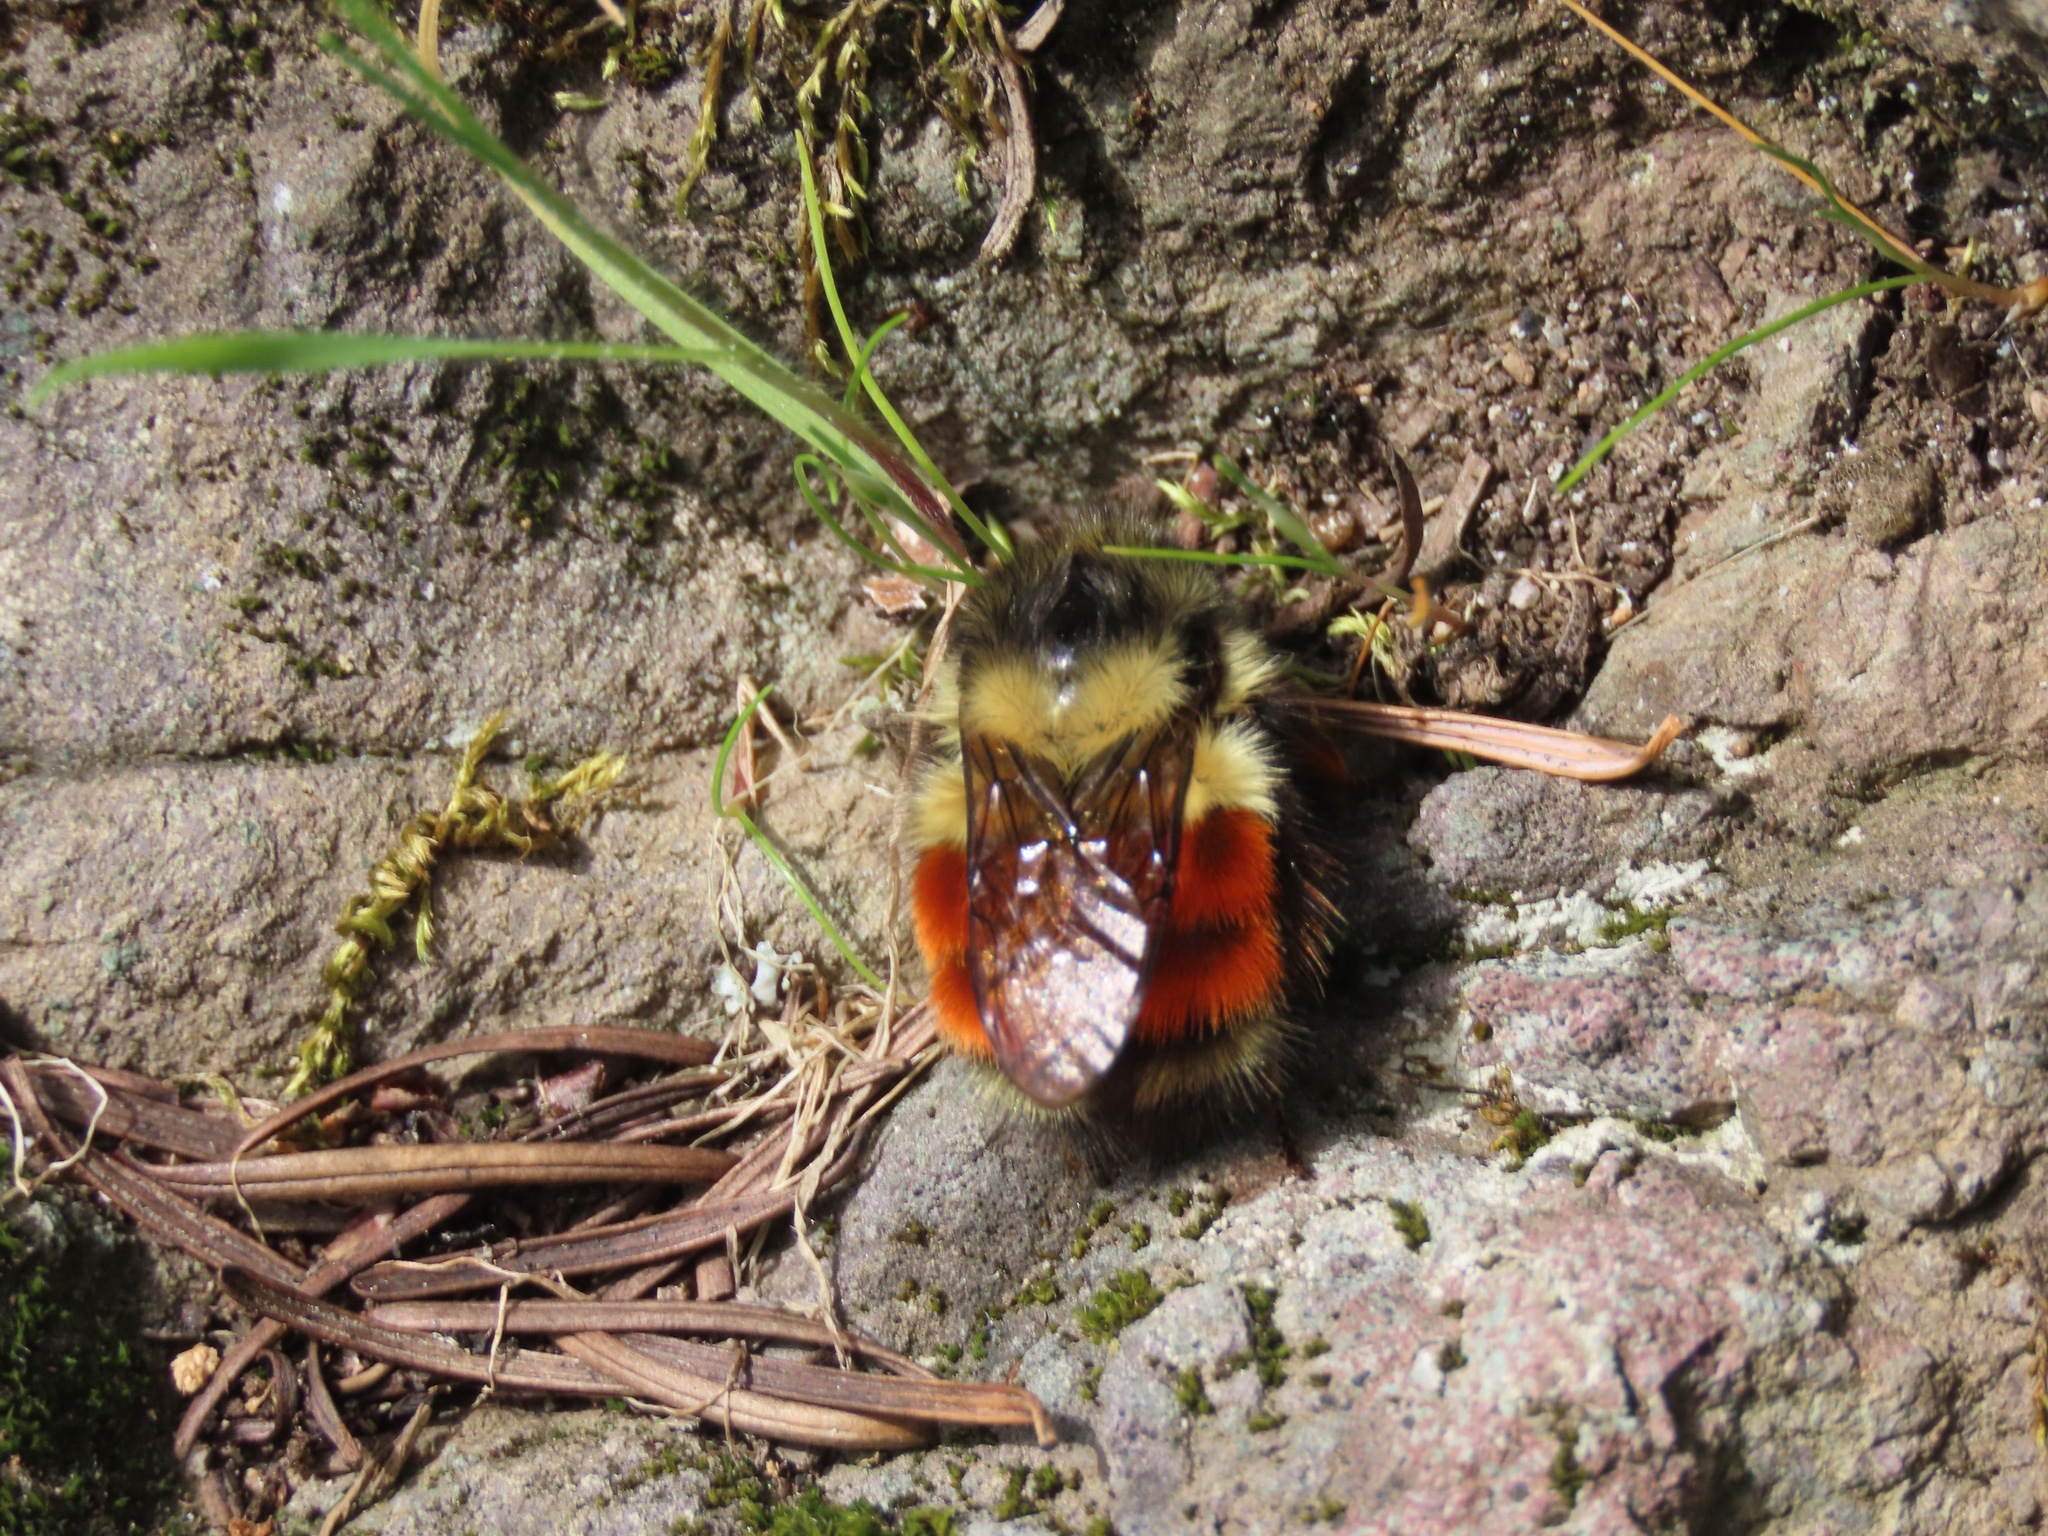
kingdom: Animalia
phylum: Arthropoda
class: Insecta
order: Hymenoptera
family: Apidae
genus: Bombus
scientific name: Bombus melanopygus
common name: Black tail bumble bee
